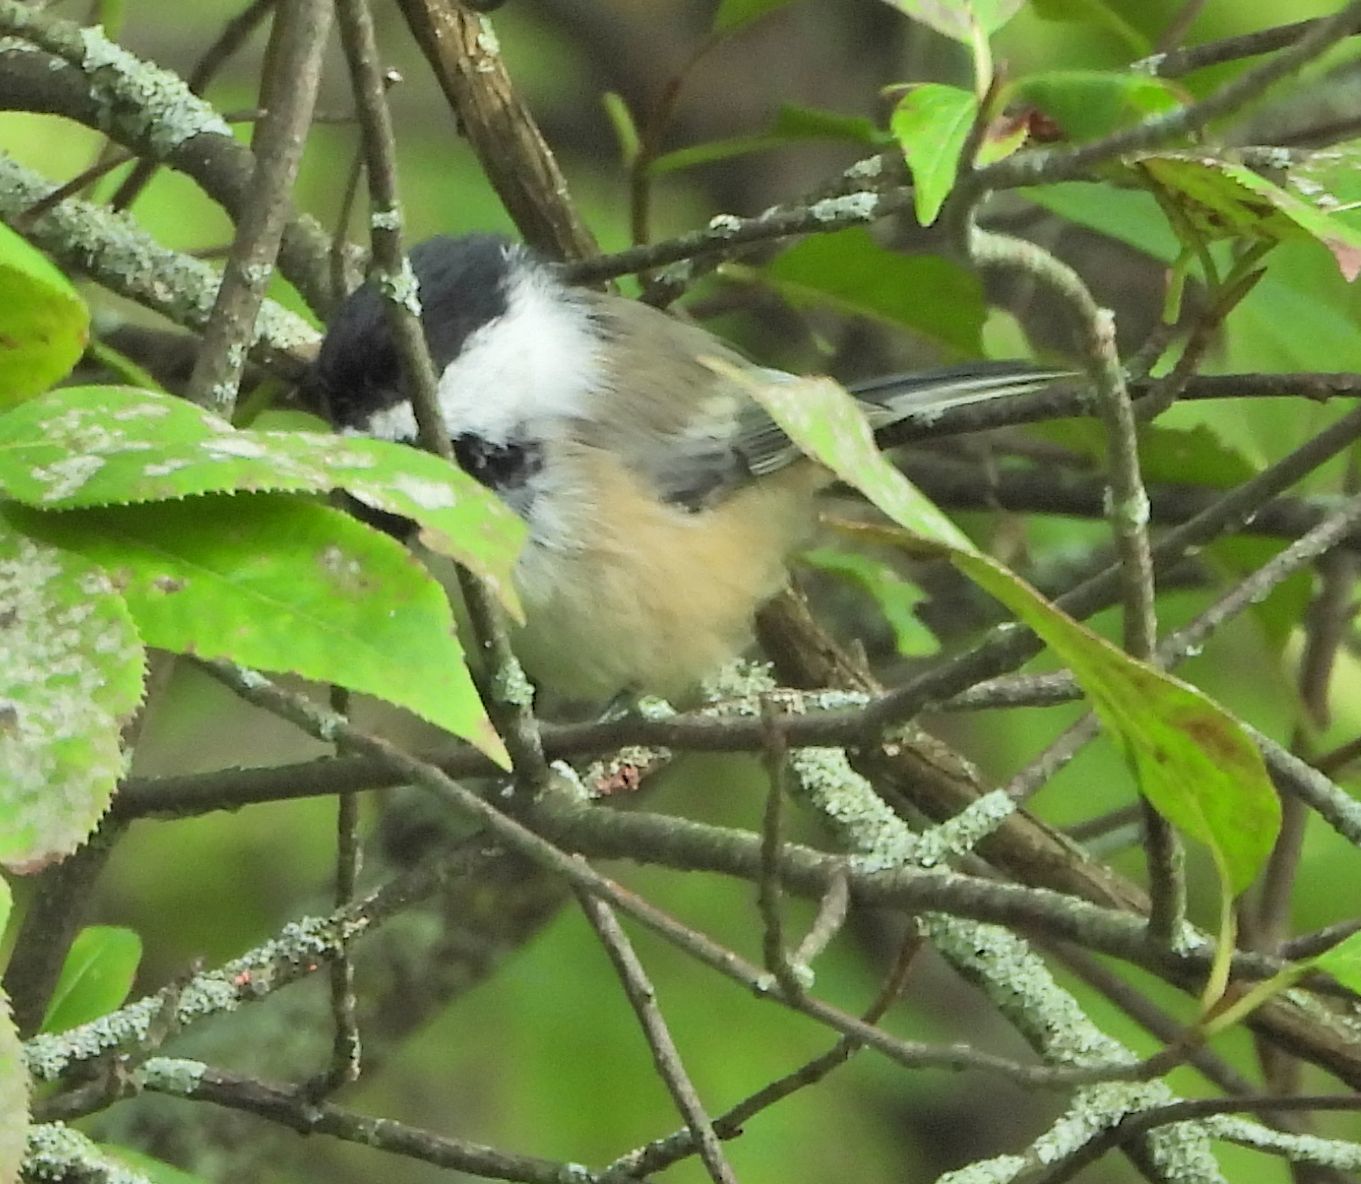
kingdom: Animalia
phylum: Chordata
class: Aves
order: Passeriformes
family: Paridae
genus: Poecile
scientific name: Poecile atricapillus
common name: Black-capped chickadee
